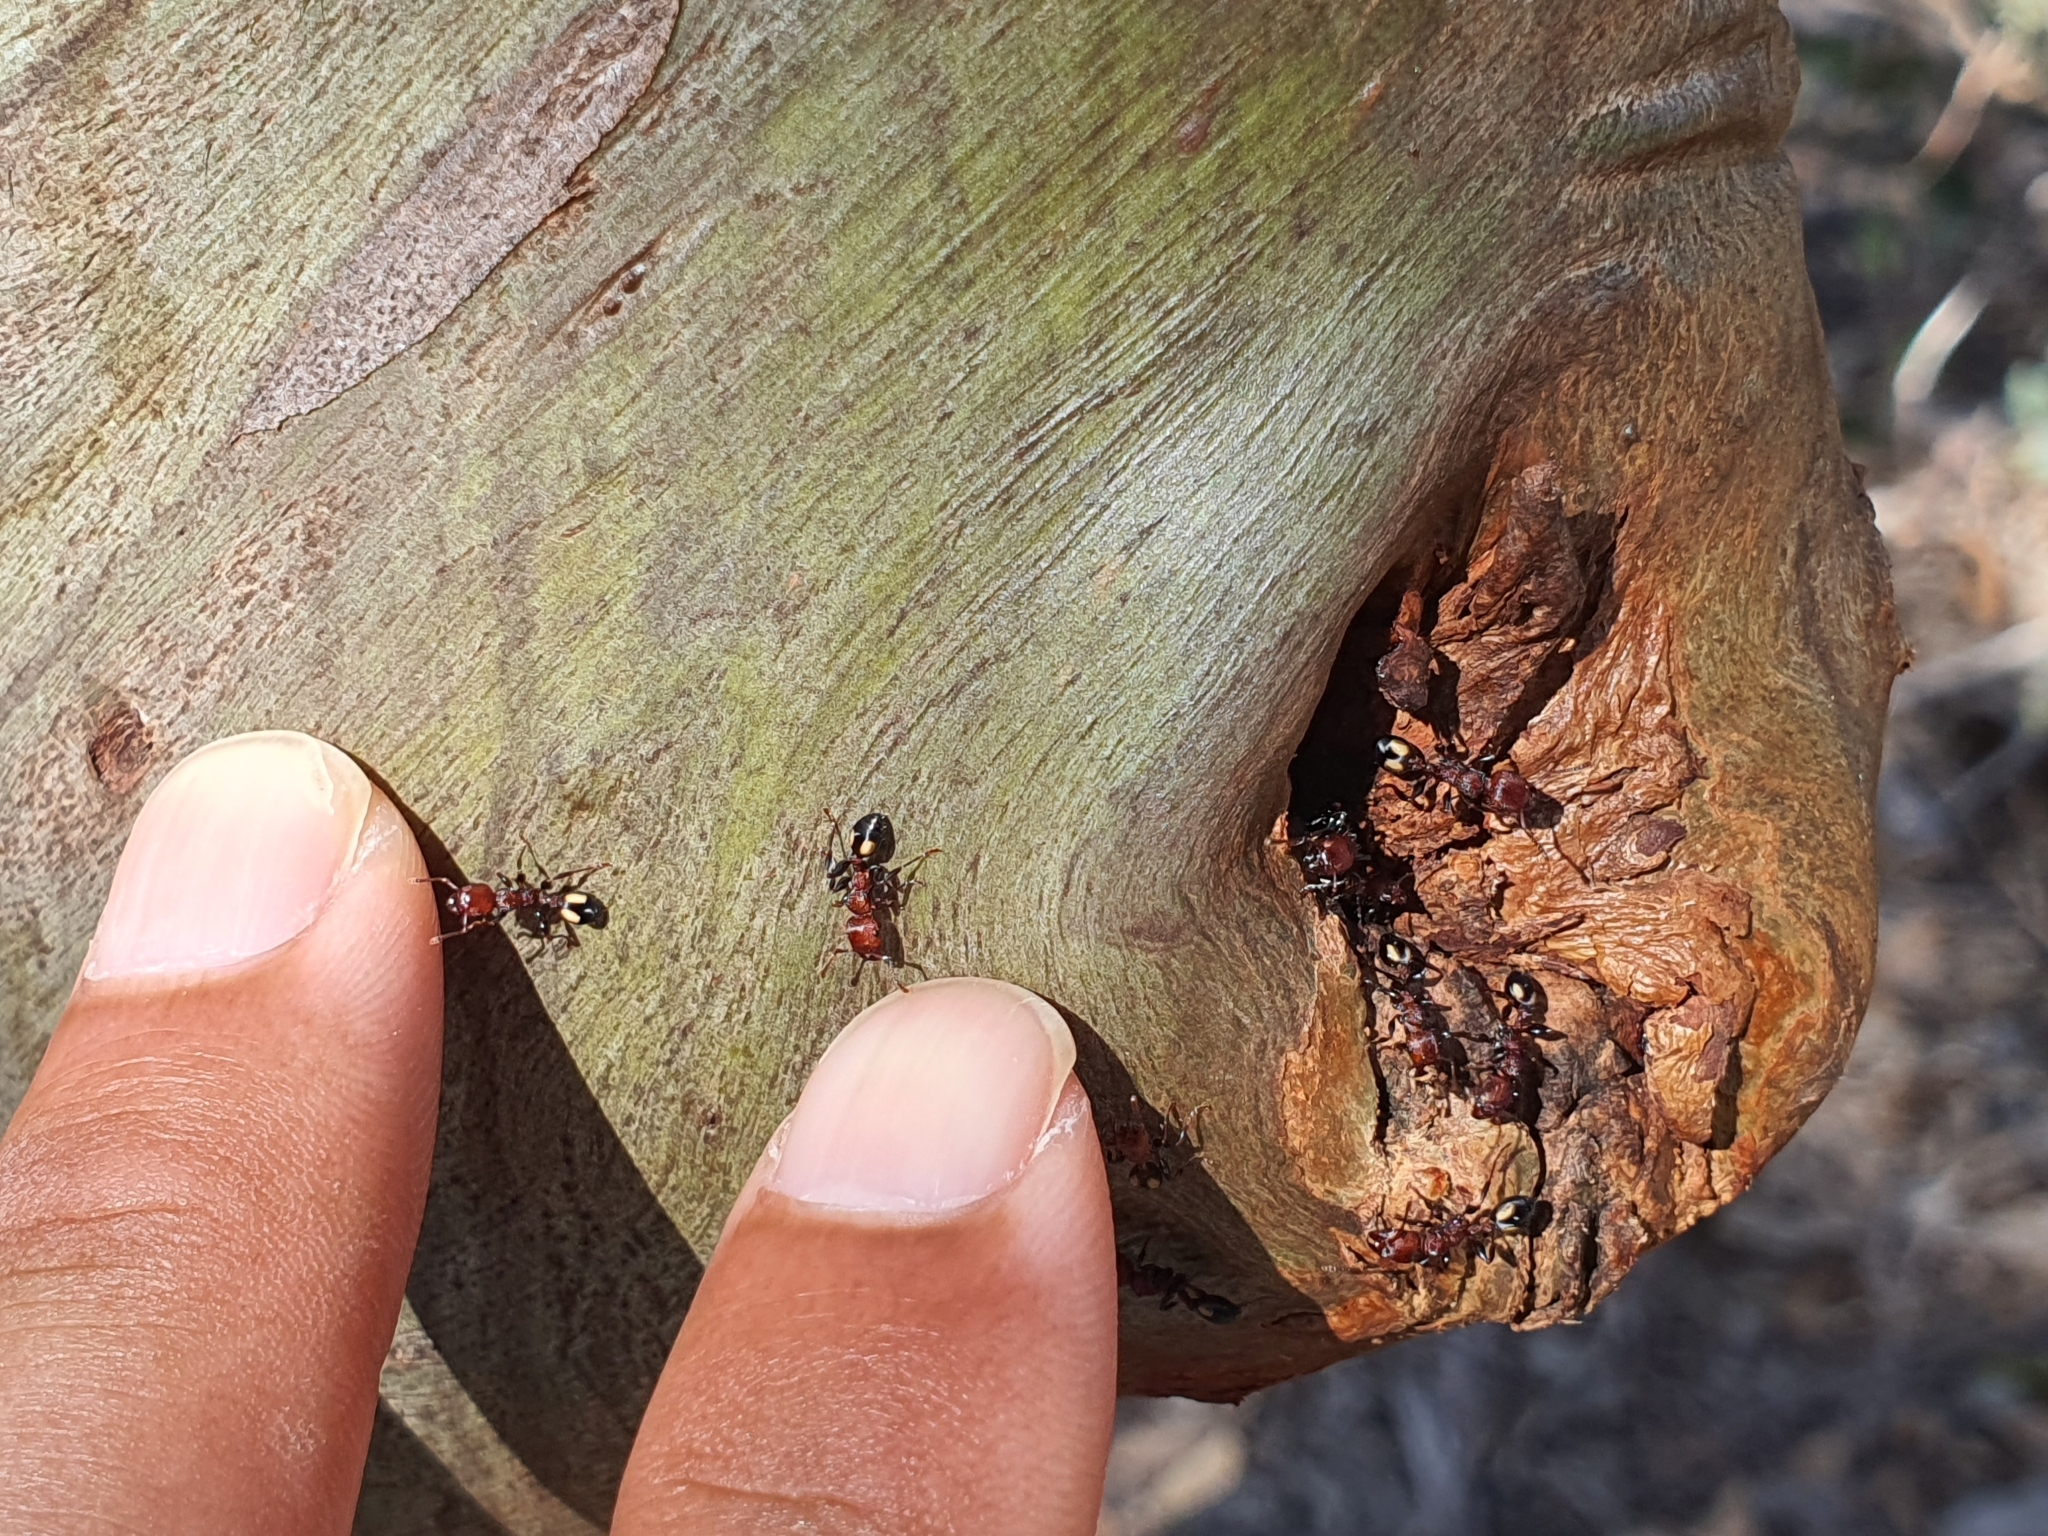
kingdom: Animalia
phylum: Arthropoda
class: Insecta
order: Hymenoptera
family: Formicidae
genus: Podomyrma
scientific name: Podomyrma adelaidae
